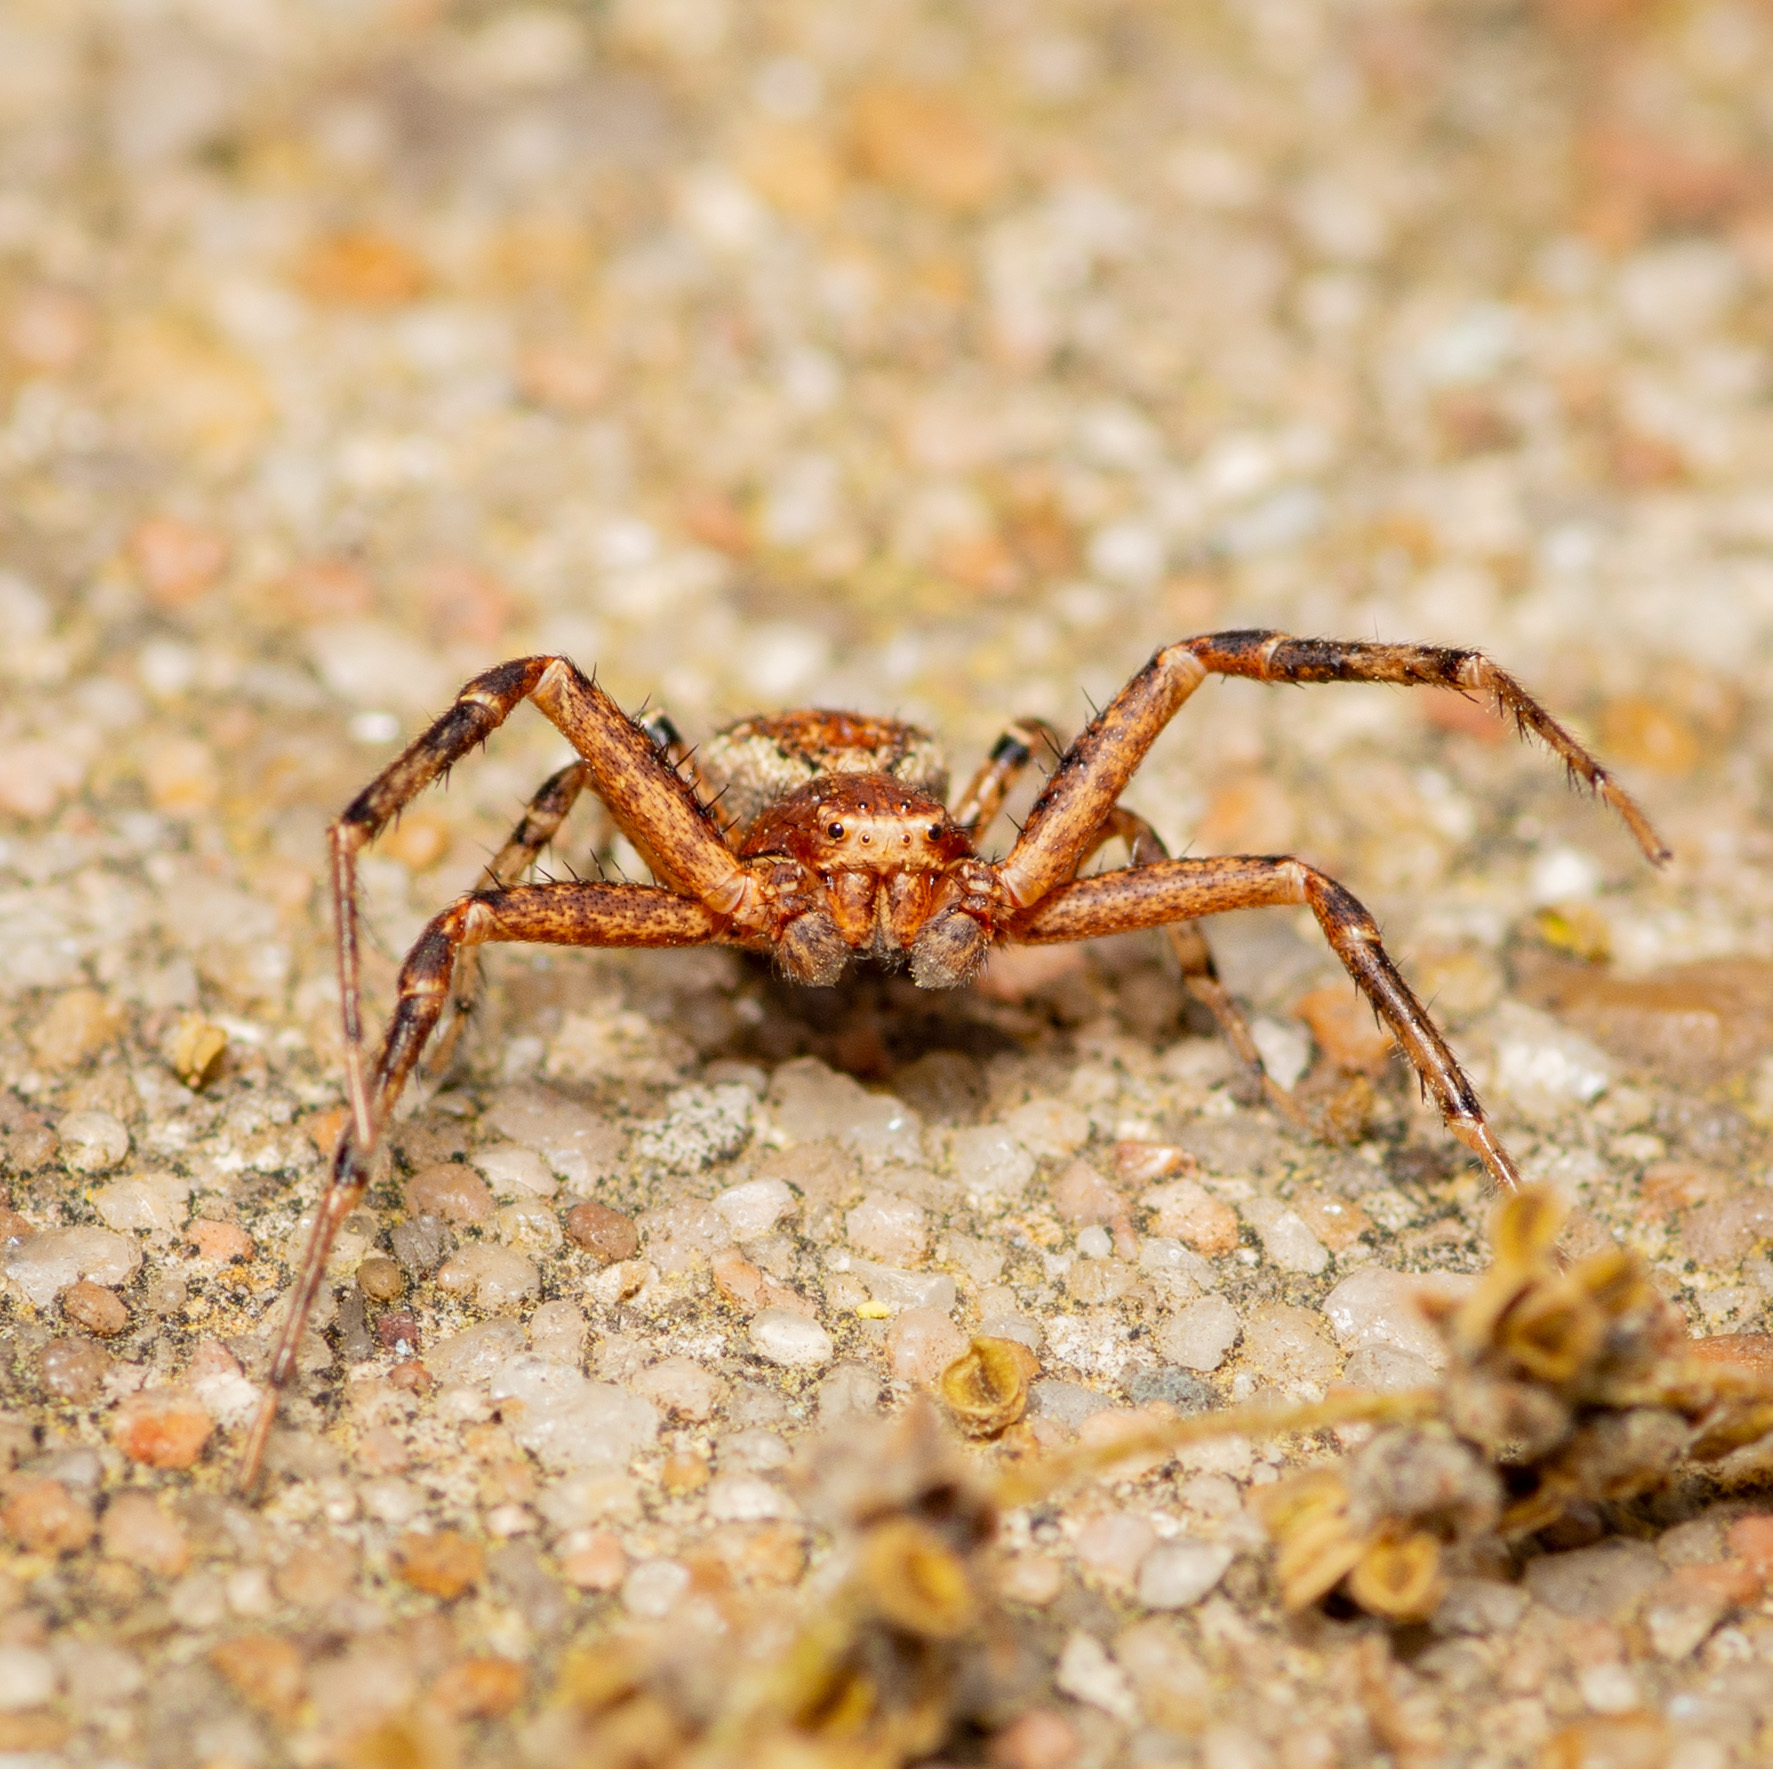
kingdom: Animalia
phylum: Arthropoda
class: Arachnida
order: Araneae
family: Thomisidae
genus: Xysticus
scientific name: Xysticus ferox
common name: Tan crab spider
